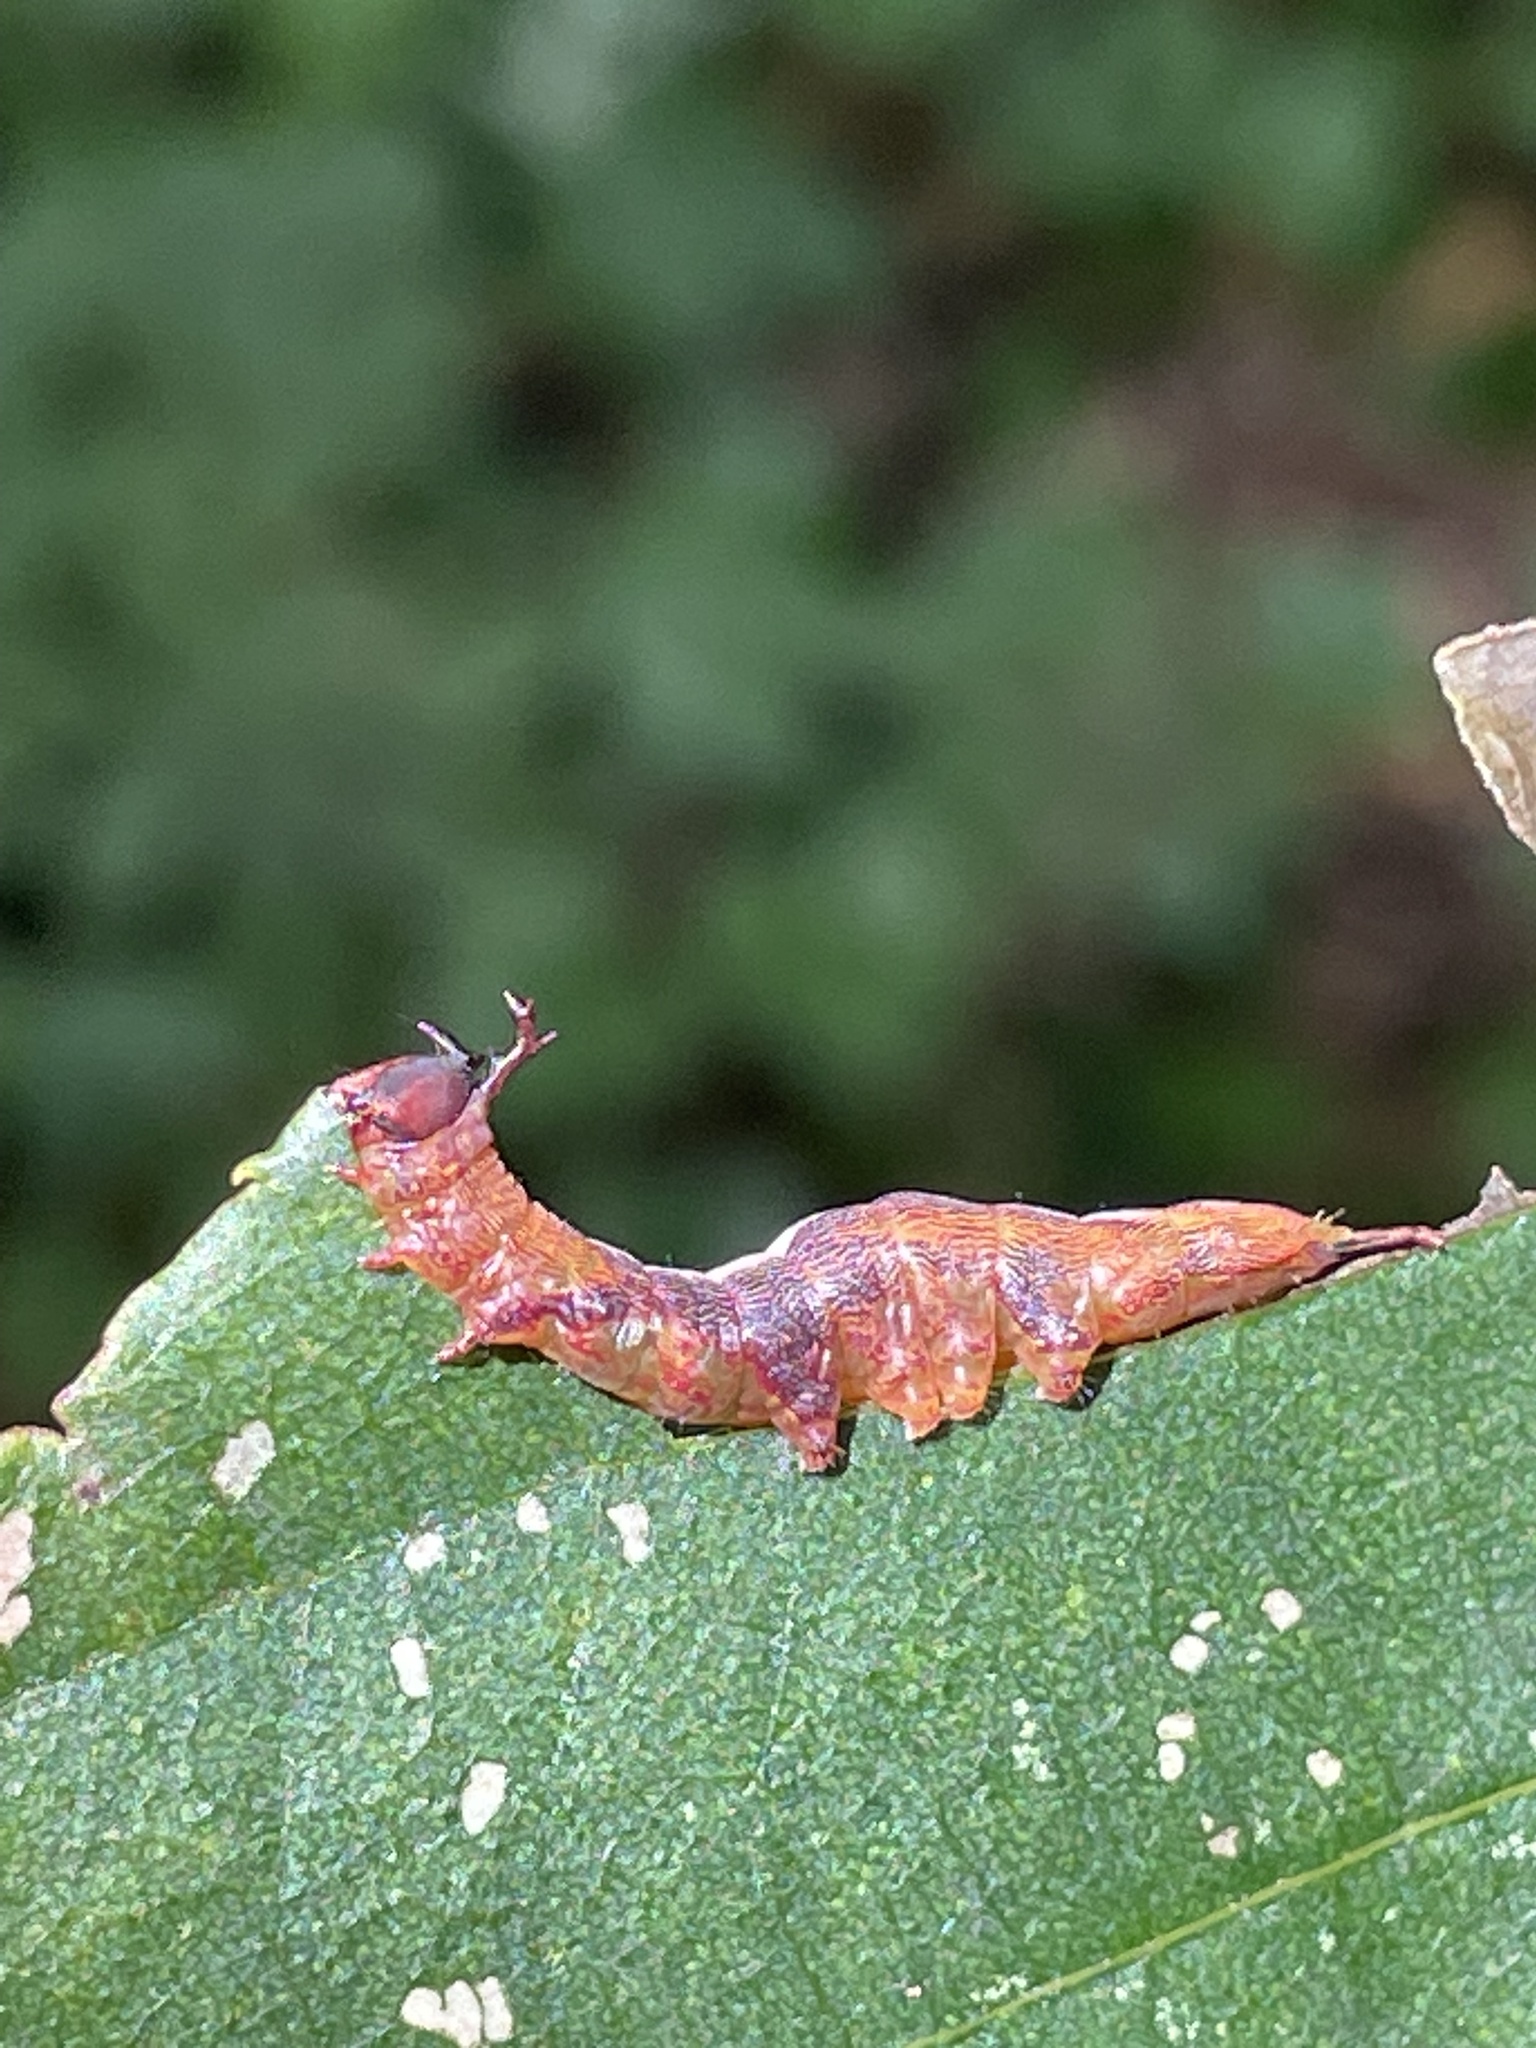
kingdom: Animalia
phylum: Arthropoda
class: Insecta
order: Lepidoptera
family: Notodontidae
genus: Disphragis
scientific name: Disphragis Cecrita biundata
